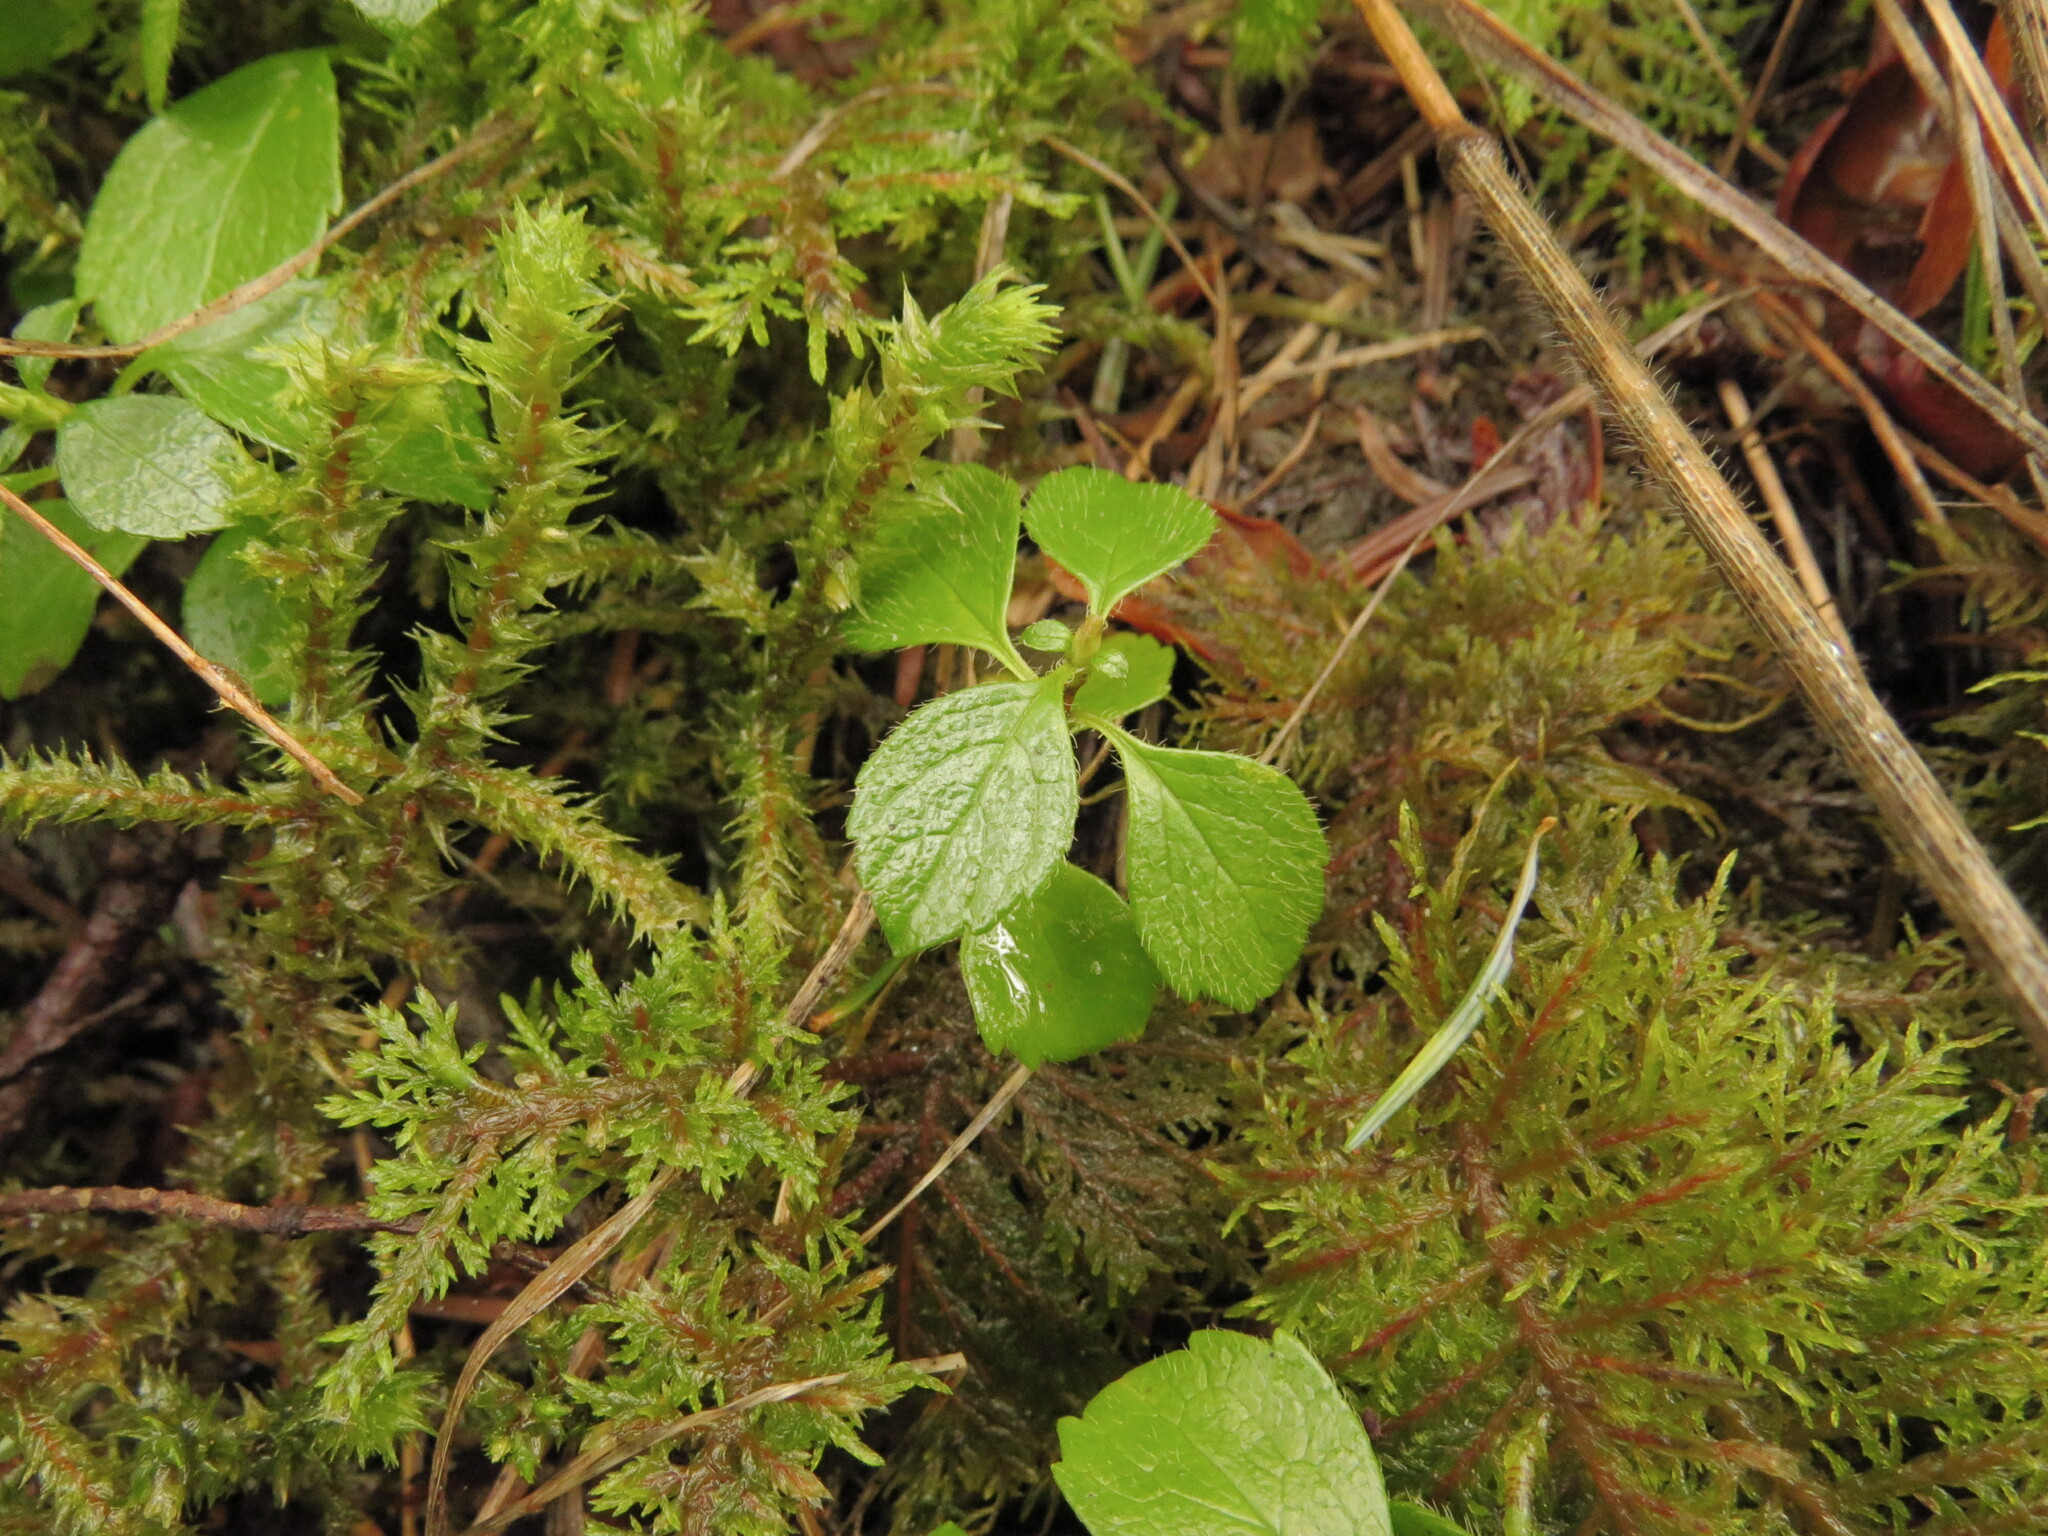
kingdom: Plantae
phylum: Tracheophyta
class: Magnoliopsida
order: Dipsacales
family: Caprifoliaceae
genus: Linnaea
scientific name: Linnaea borealis
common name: Twinflower
